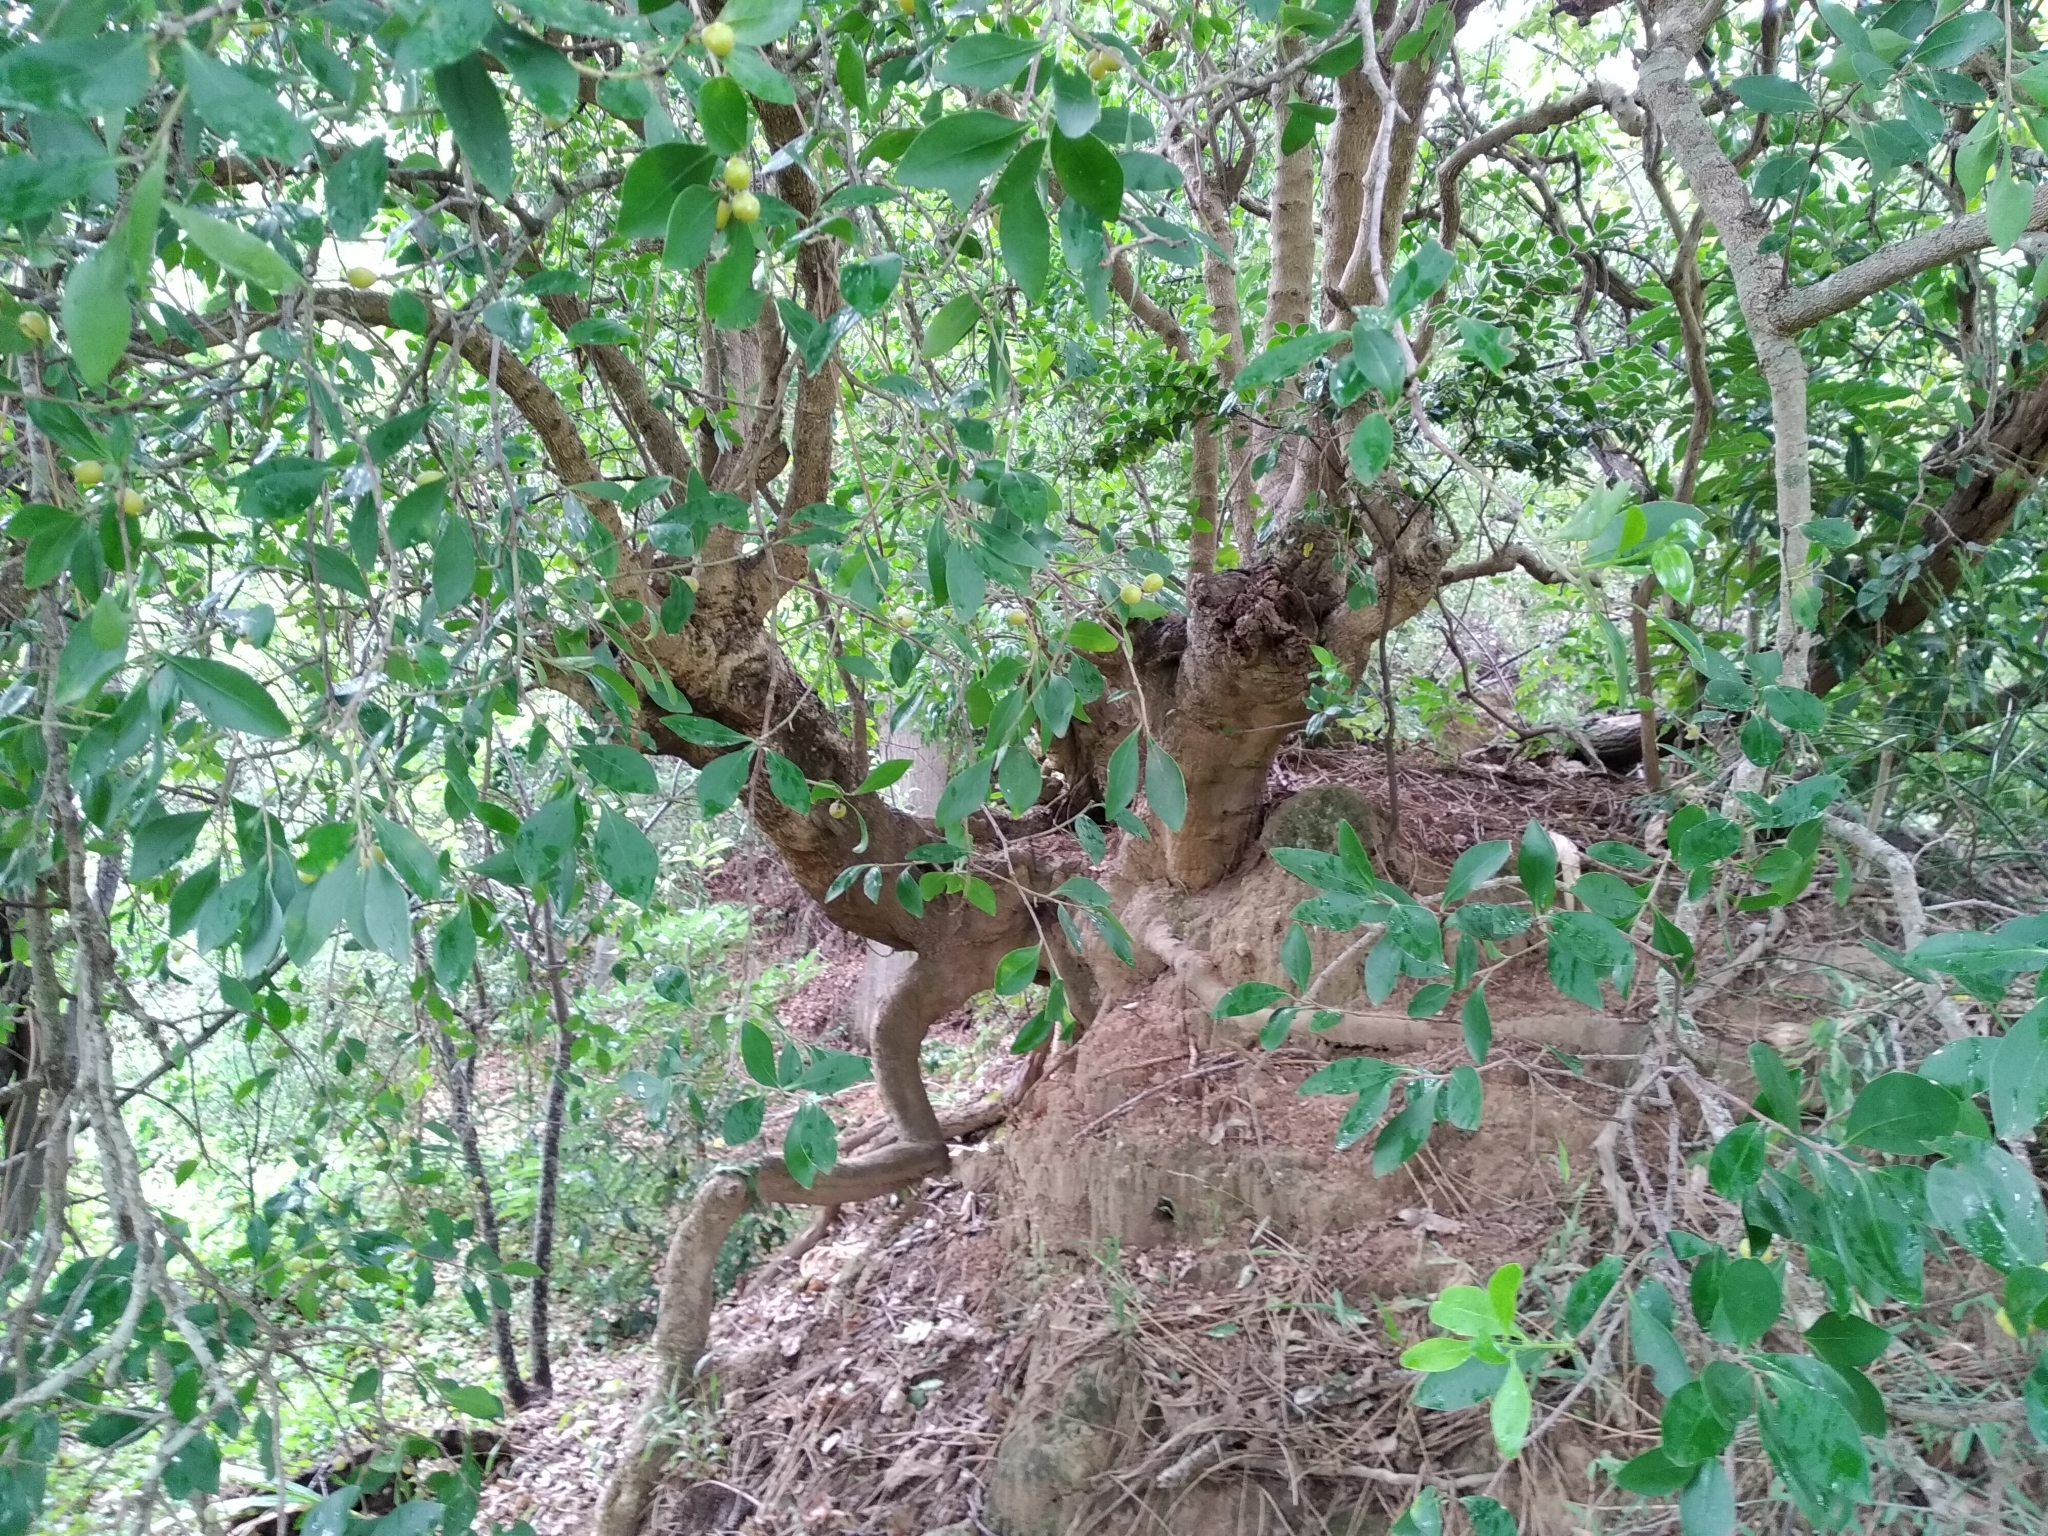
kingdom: Plantae
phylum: Tracheophyta
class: Magnoliopsida
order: Celastrales
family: Celastraceae
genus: Gymnosporia
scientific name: Gymnosporia laurina
